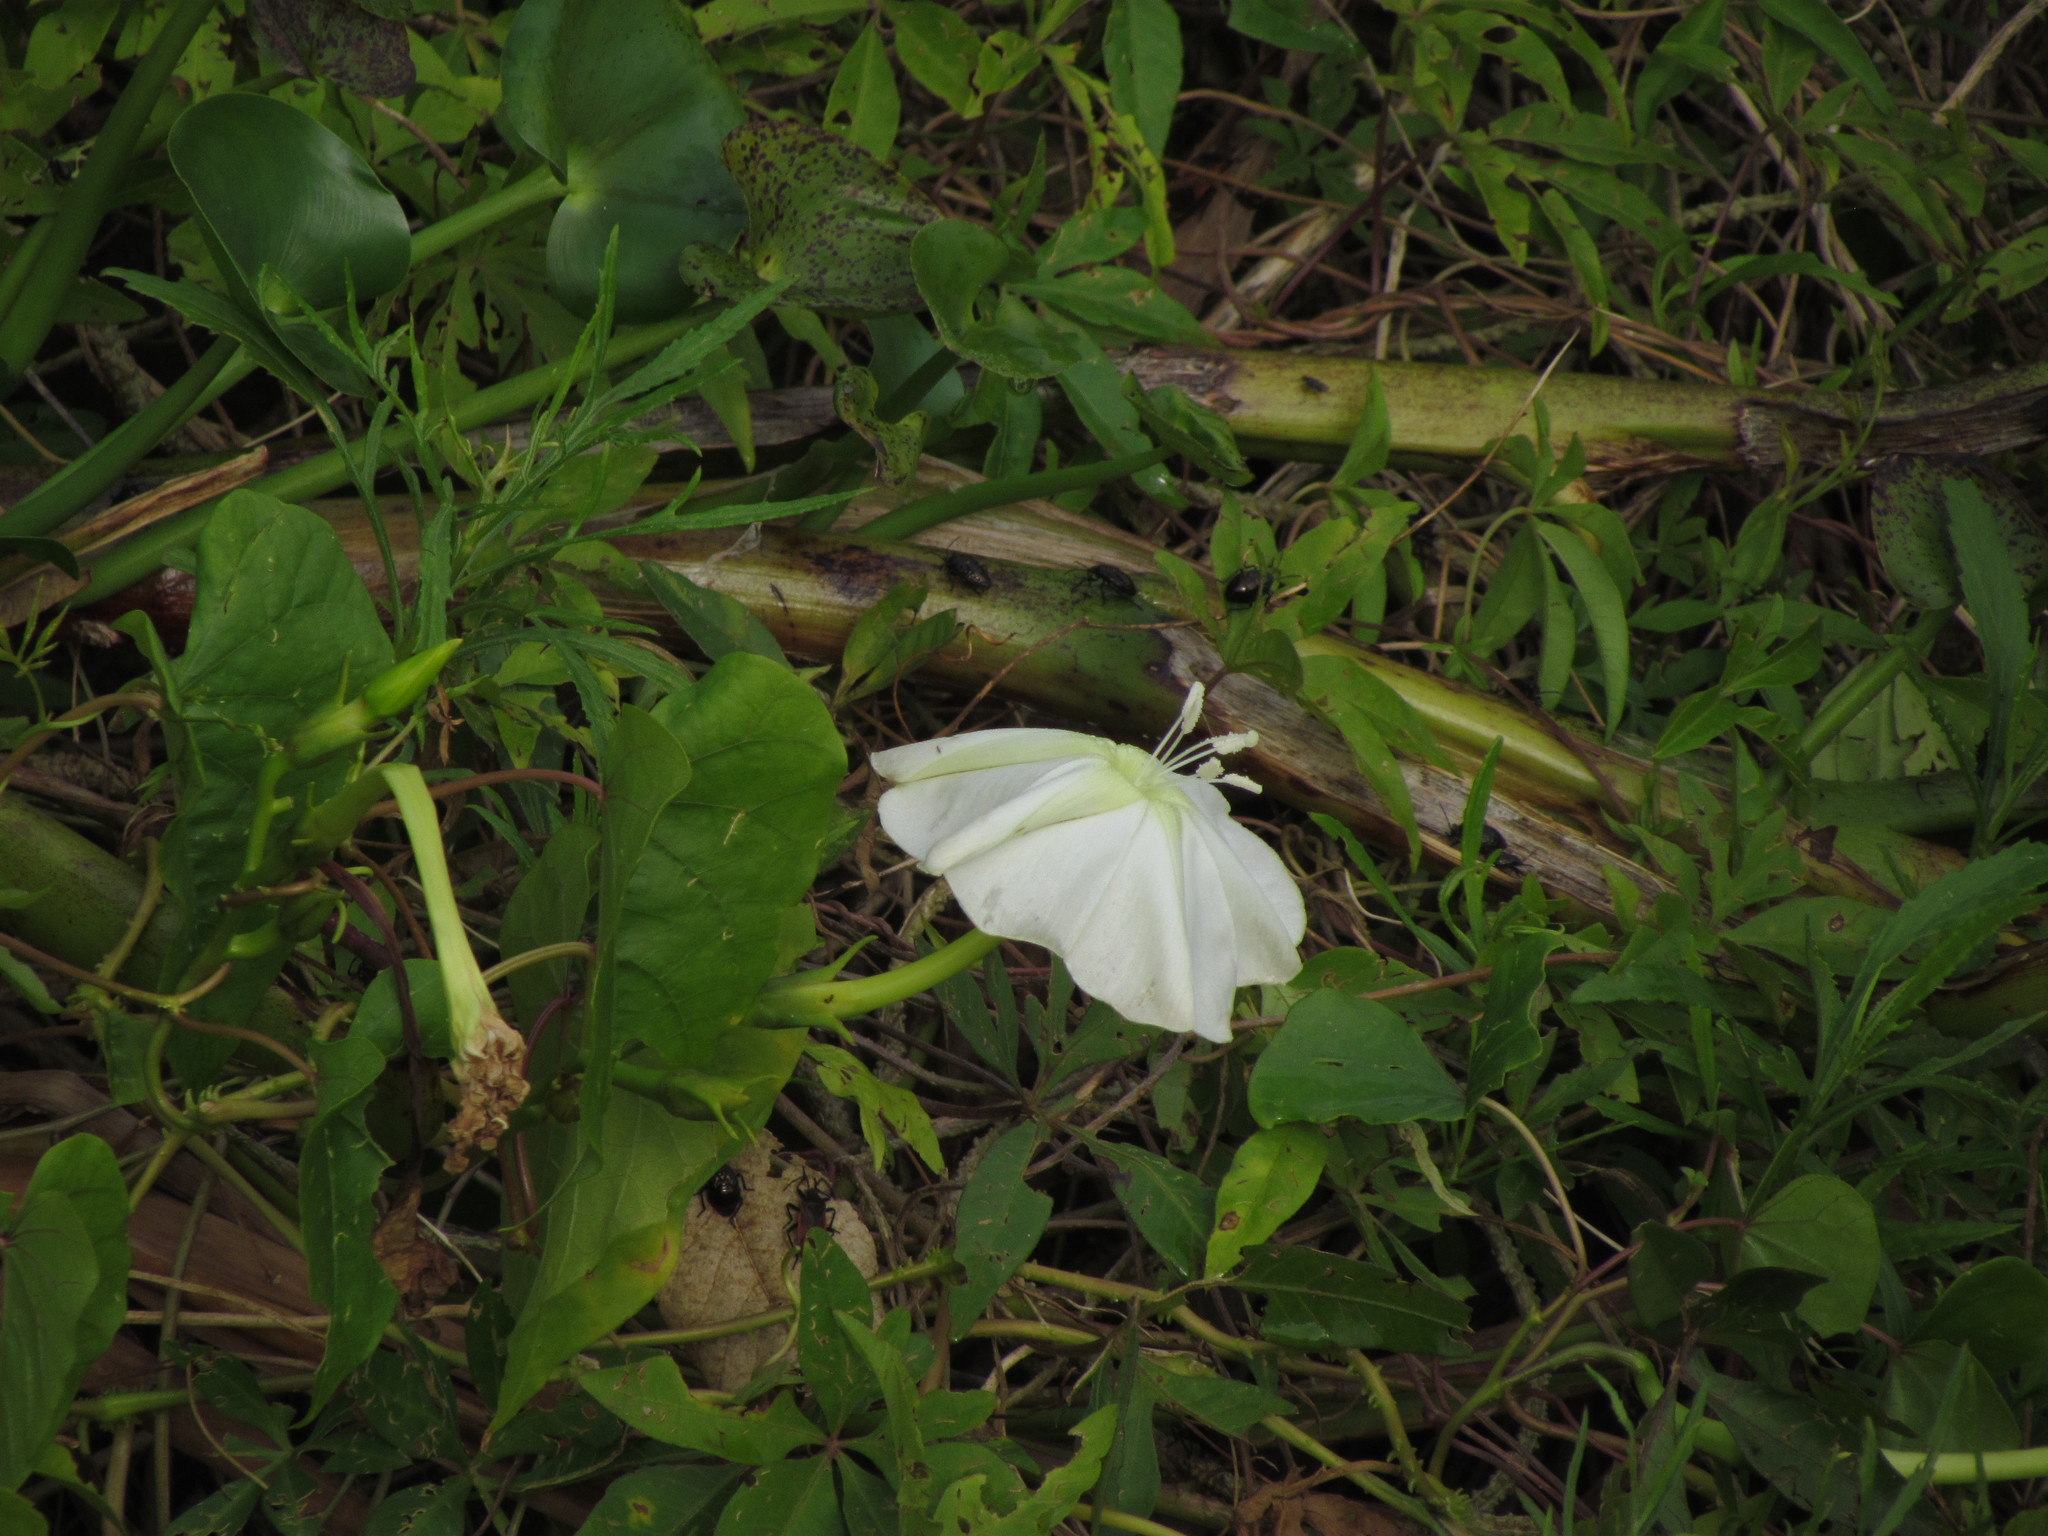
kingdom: Plantae
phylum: Tracheophyta
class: Magnoliopsida
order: Solanales
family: Convolvulaceae
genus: Ipomoea
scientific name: Ipomoea alba
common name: Moonflower
